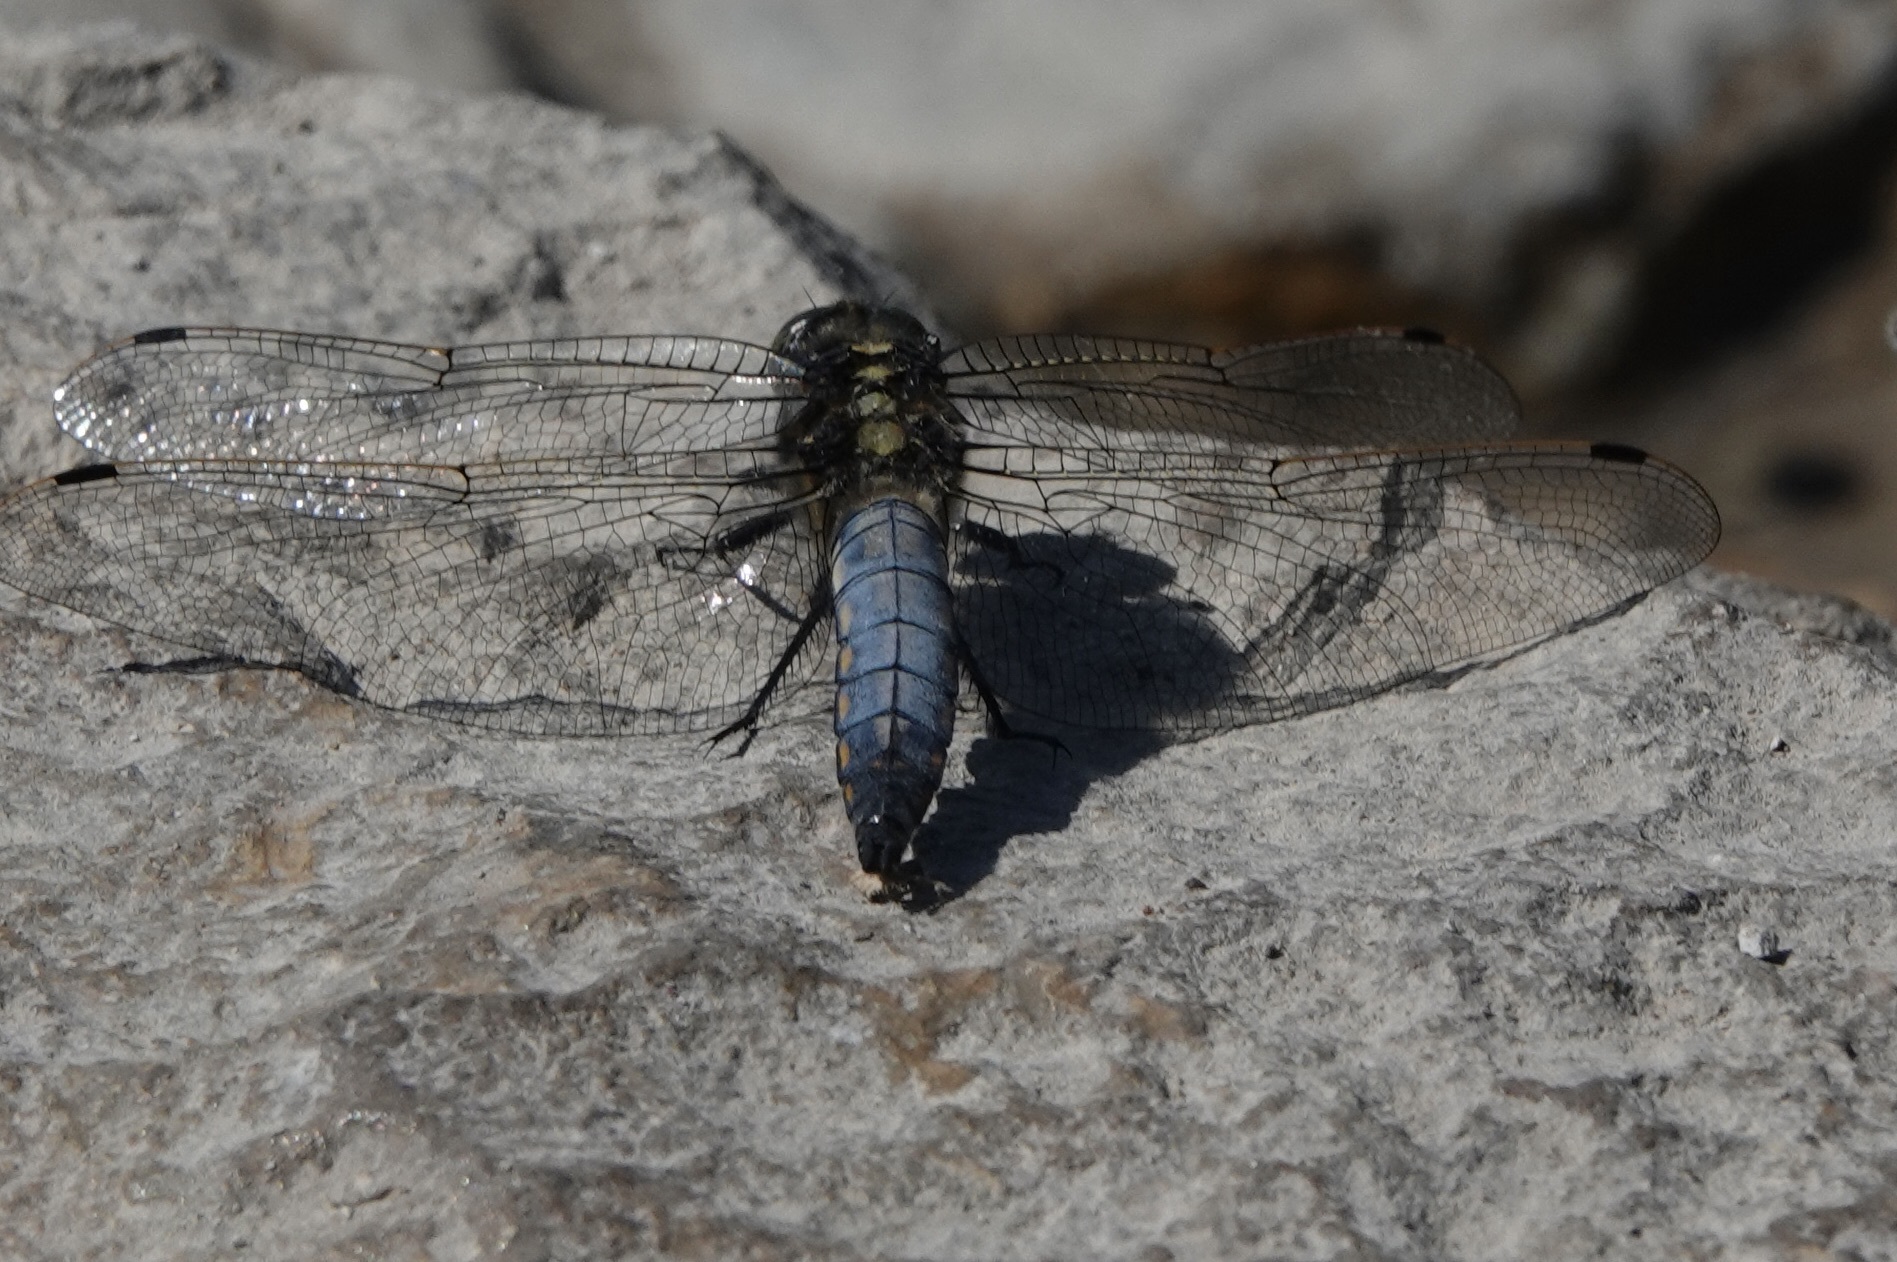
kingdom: Animalia
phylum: Arthropoda
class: Insecta
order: Odonata
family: Libellulidae
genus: Orthetrum
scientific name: Orthetrum cancellatum
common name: Black-tailed skimmer
